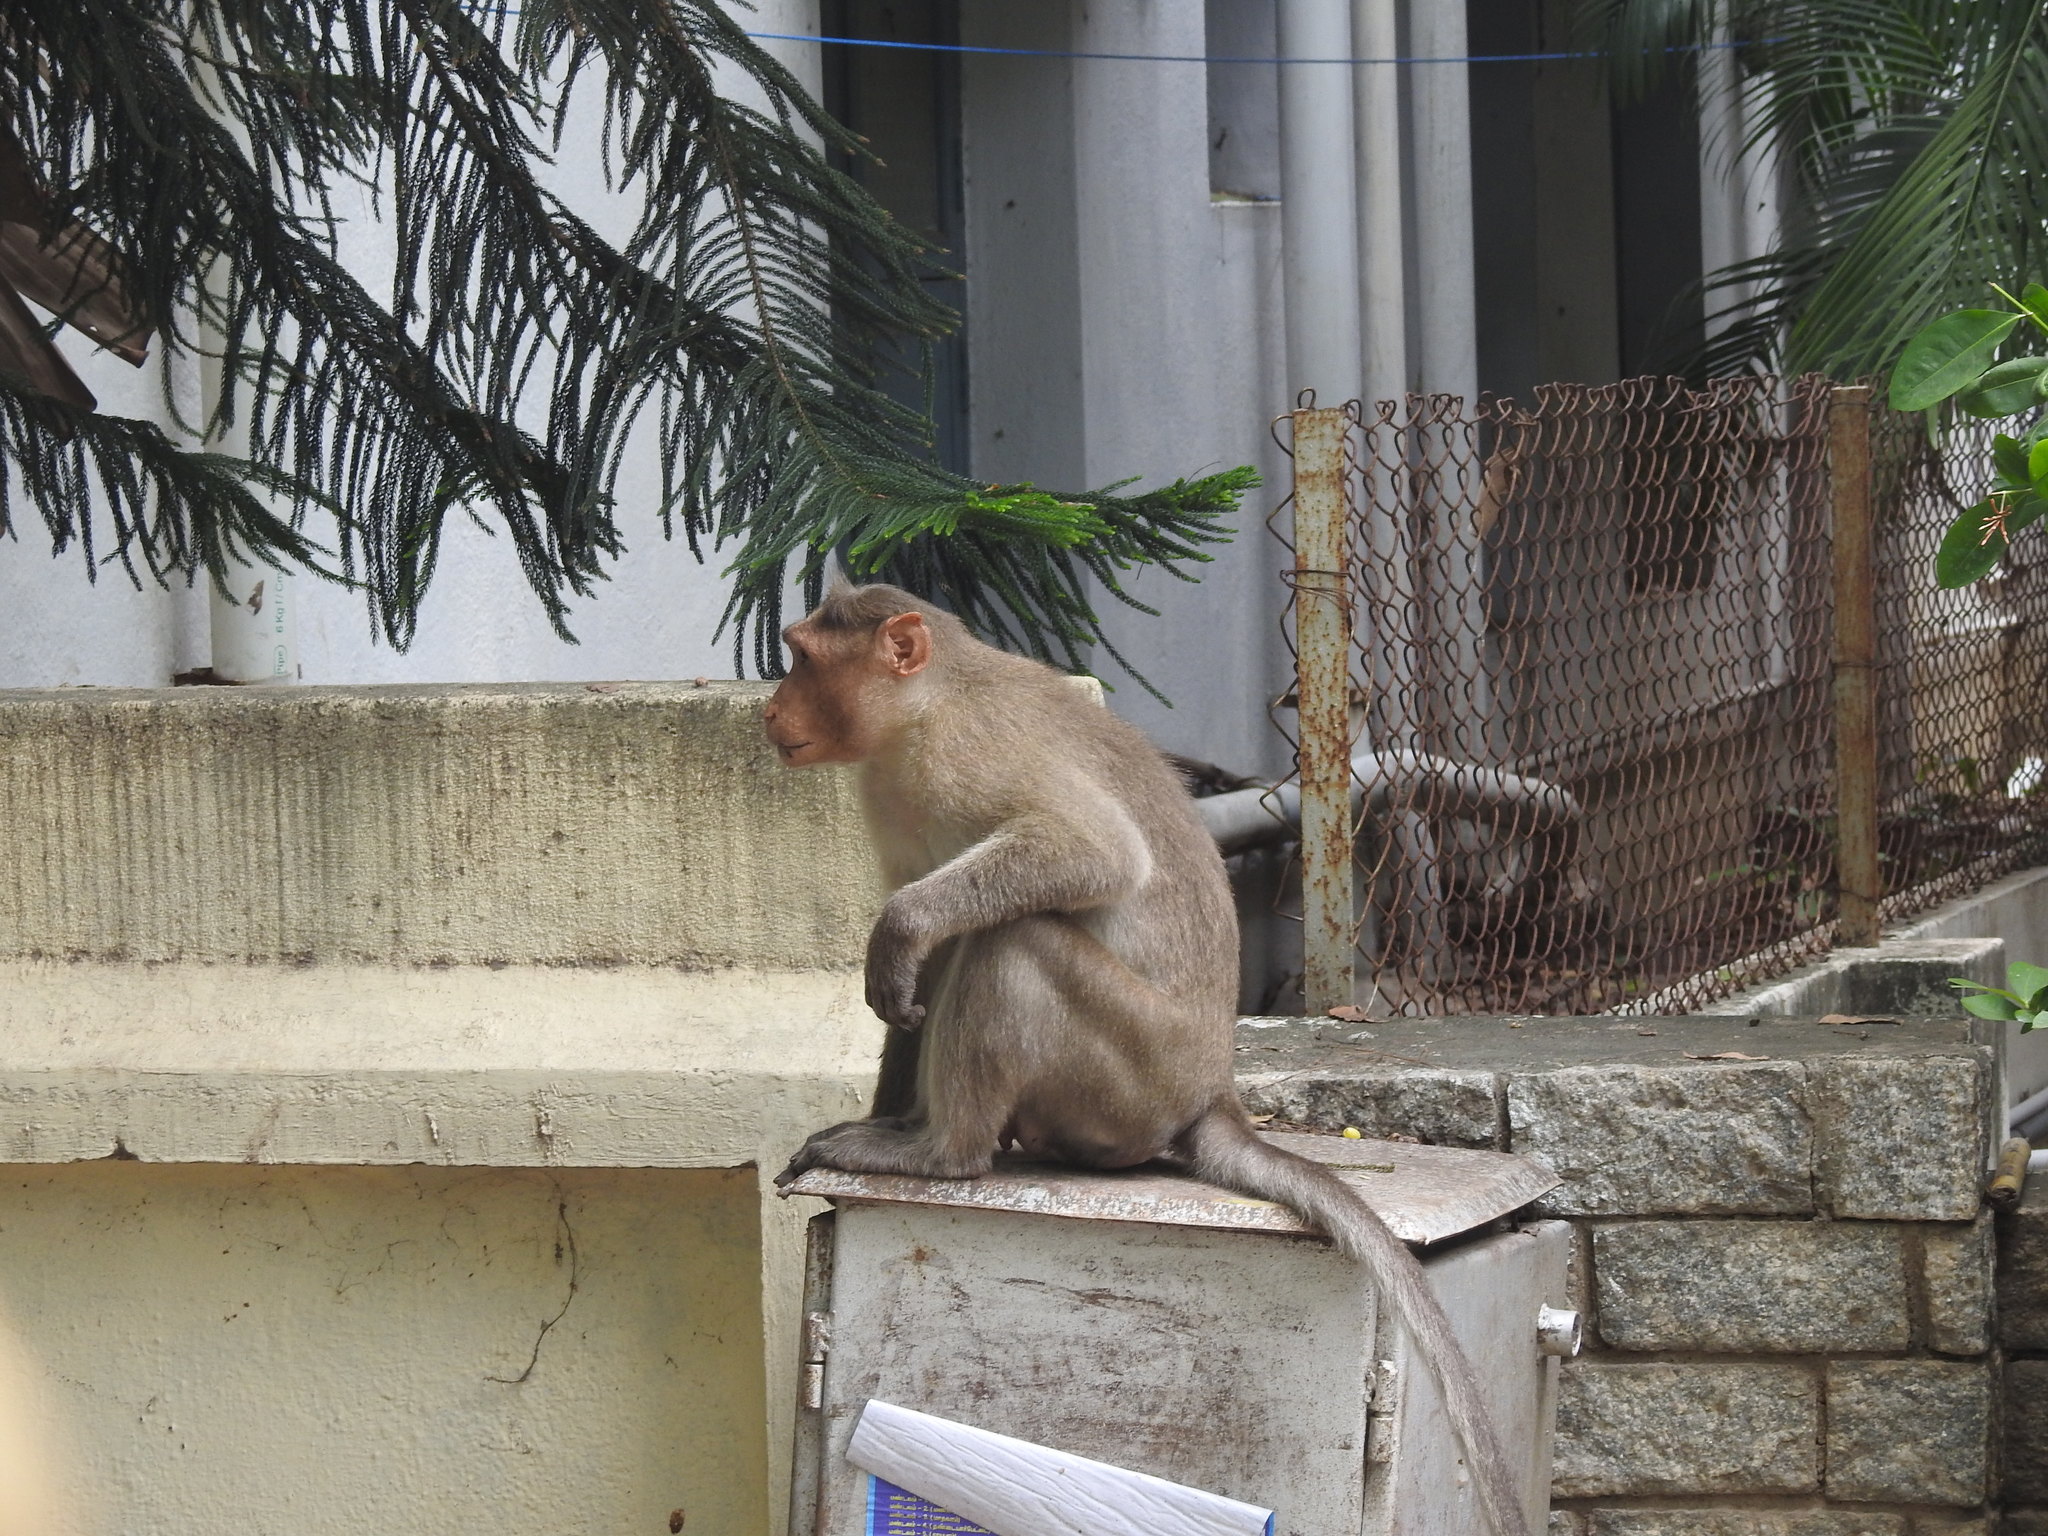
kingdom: Animalia
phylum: Chordata
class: Mammalia
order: Primates
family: Cercopithecidae
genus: Macaca
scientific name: Macaca radiata
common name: Bonnet macaque
